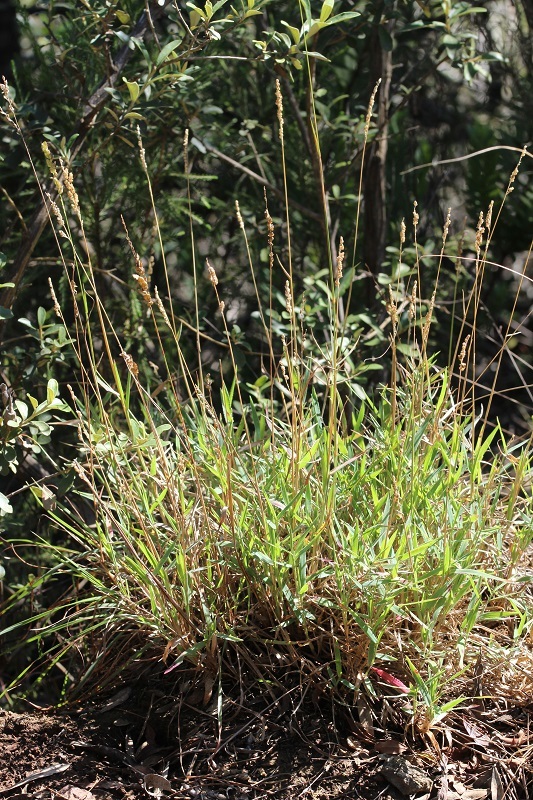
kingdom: Plantae
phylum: Tracheophyta
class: Liliopsida
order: Poales
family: Poaceae
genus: Urochloa
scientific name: Urochloa serrata
